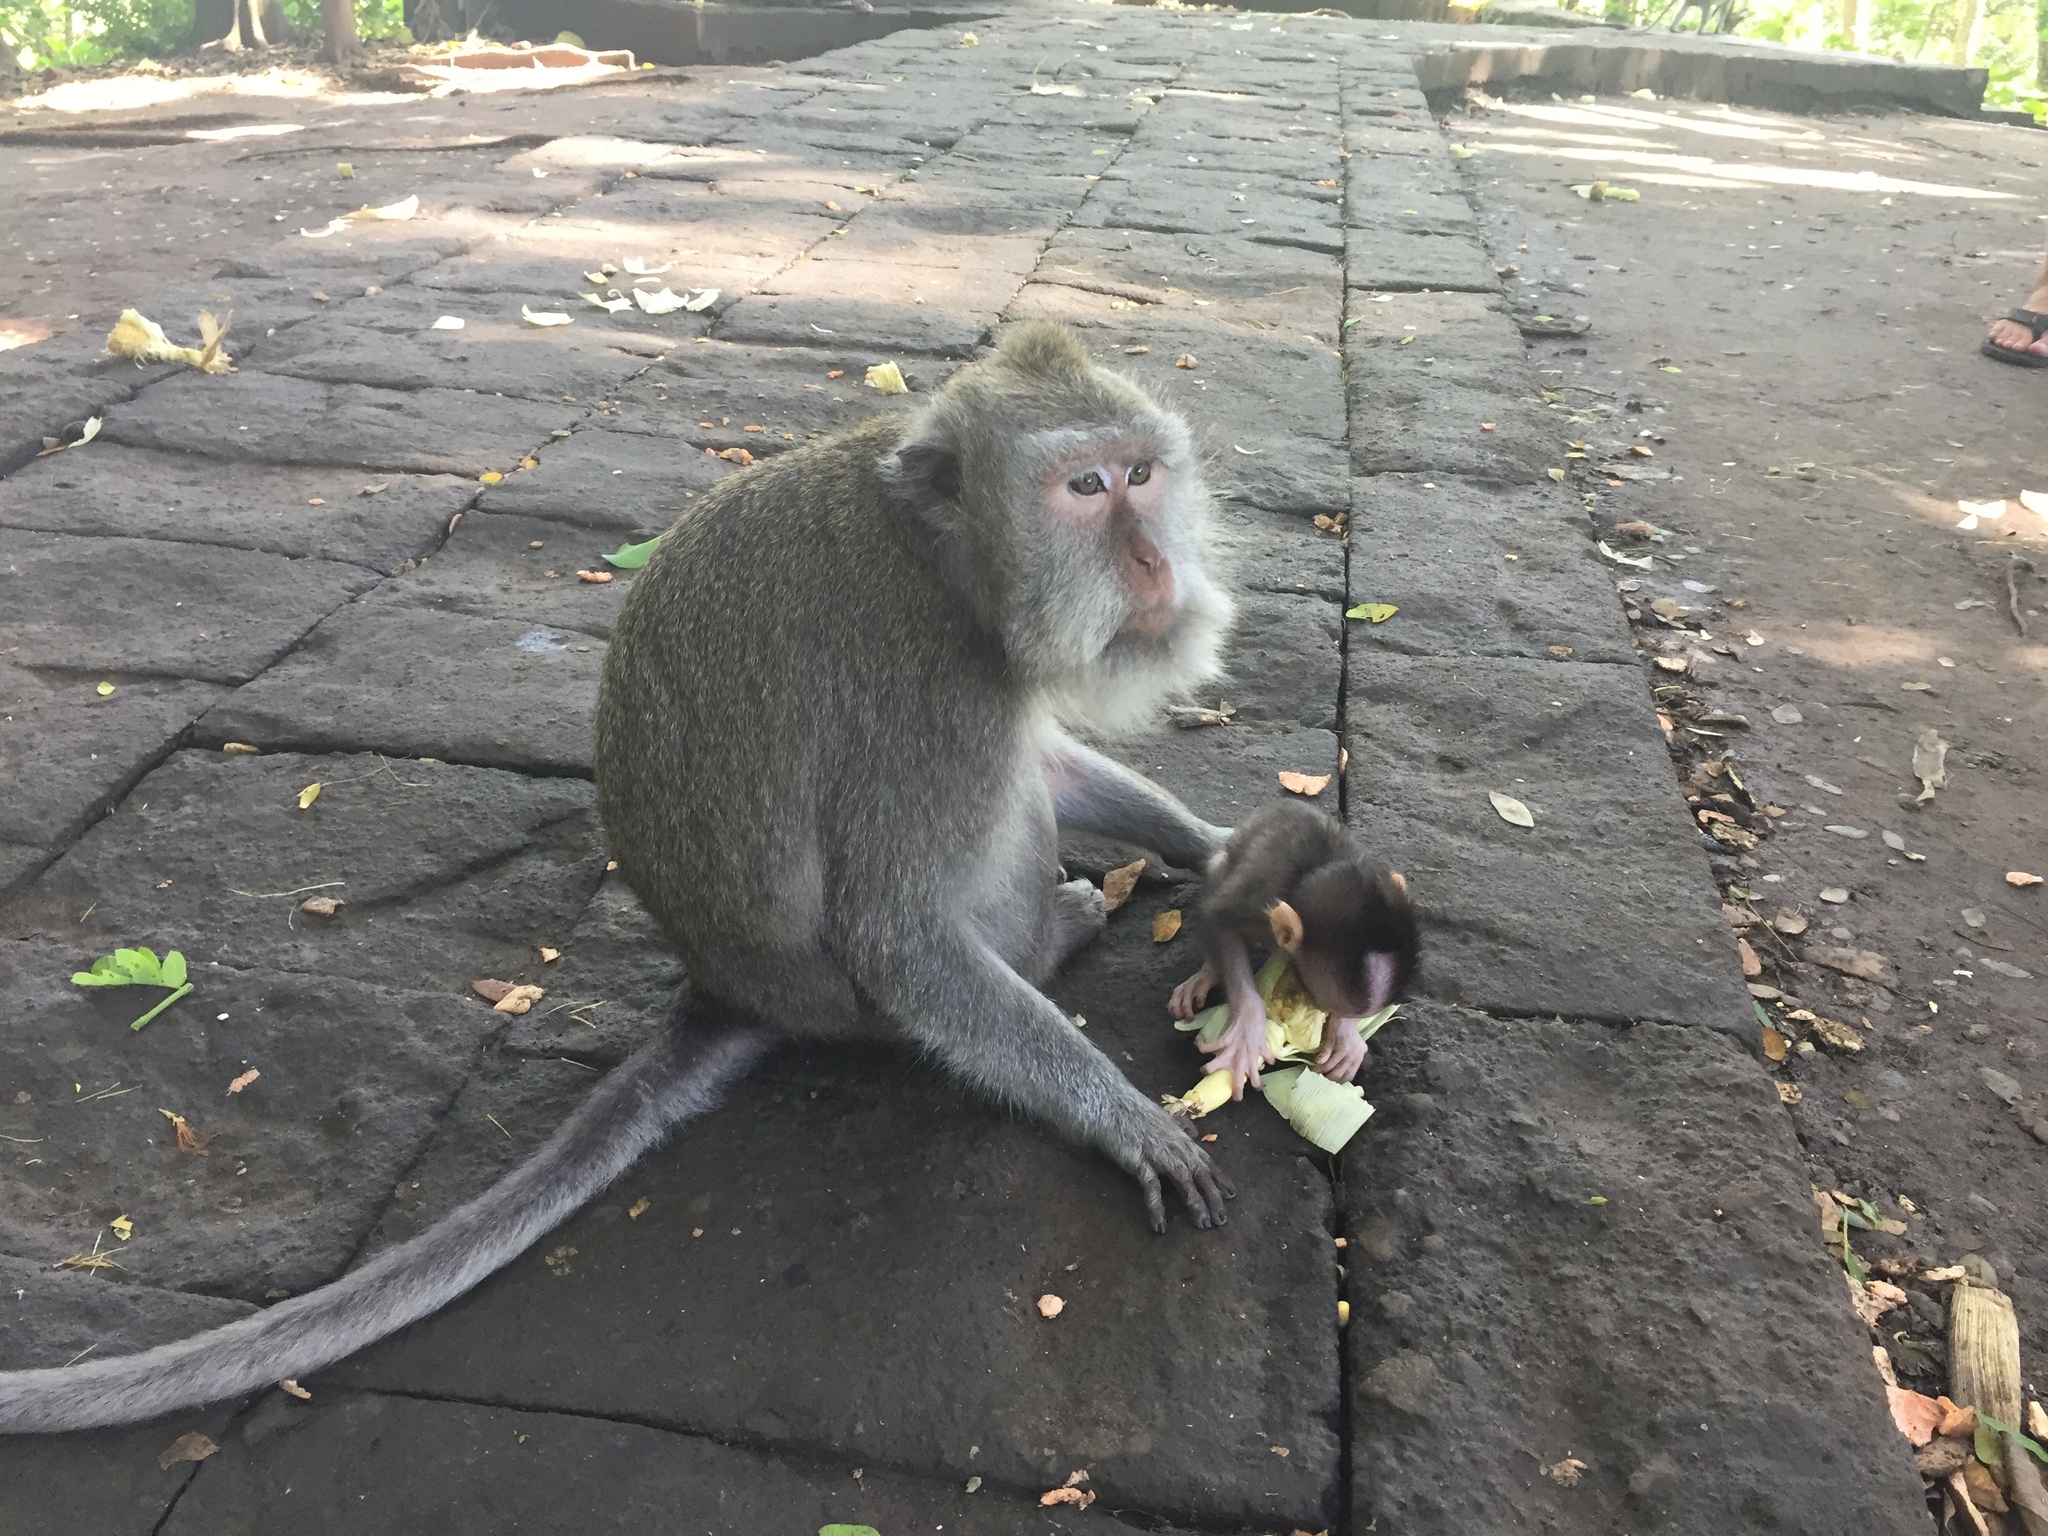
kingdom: Animalia
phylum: Chordata
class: Mammalia
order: Primates
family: Cercopithecidae
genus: Macaca
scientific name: Macaca fascicularis
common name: Crab-eating macaque
